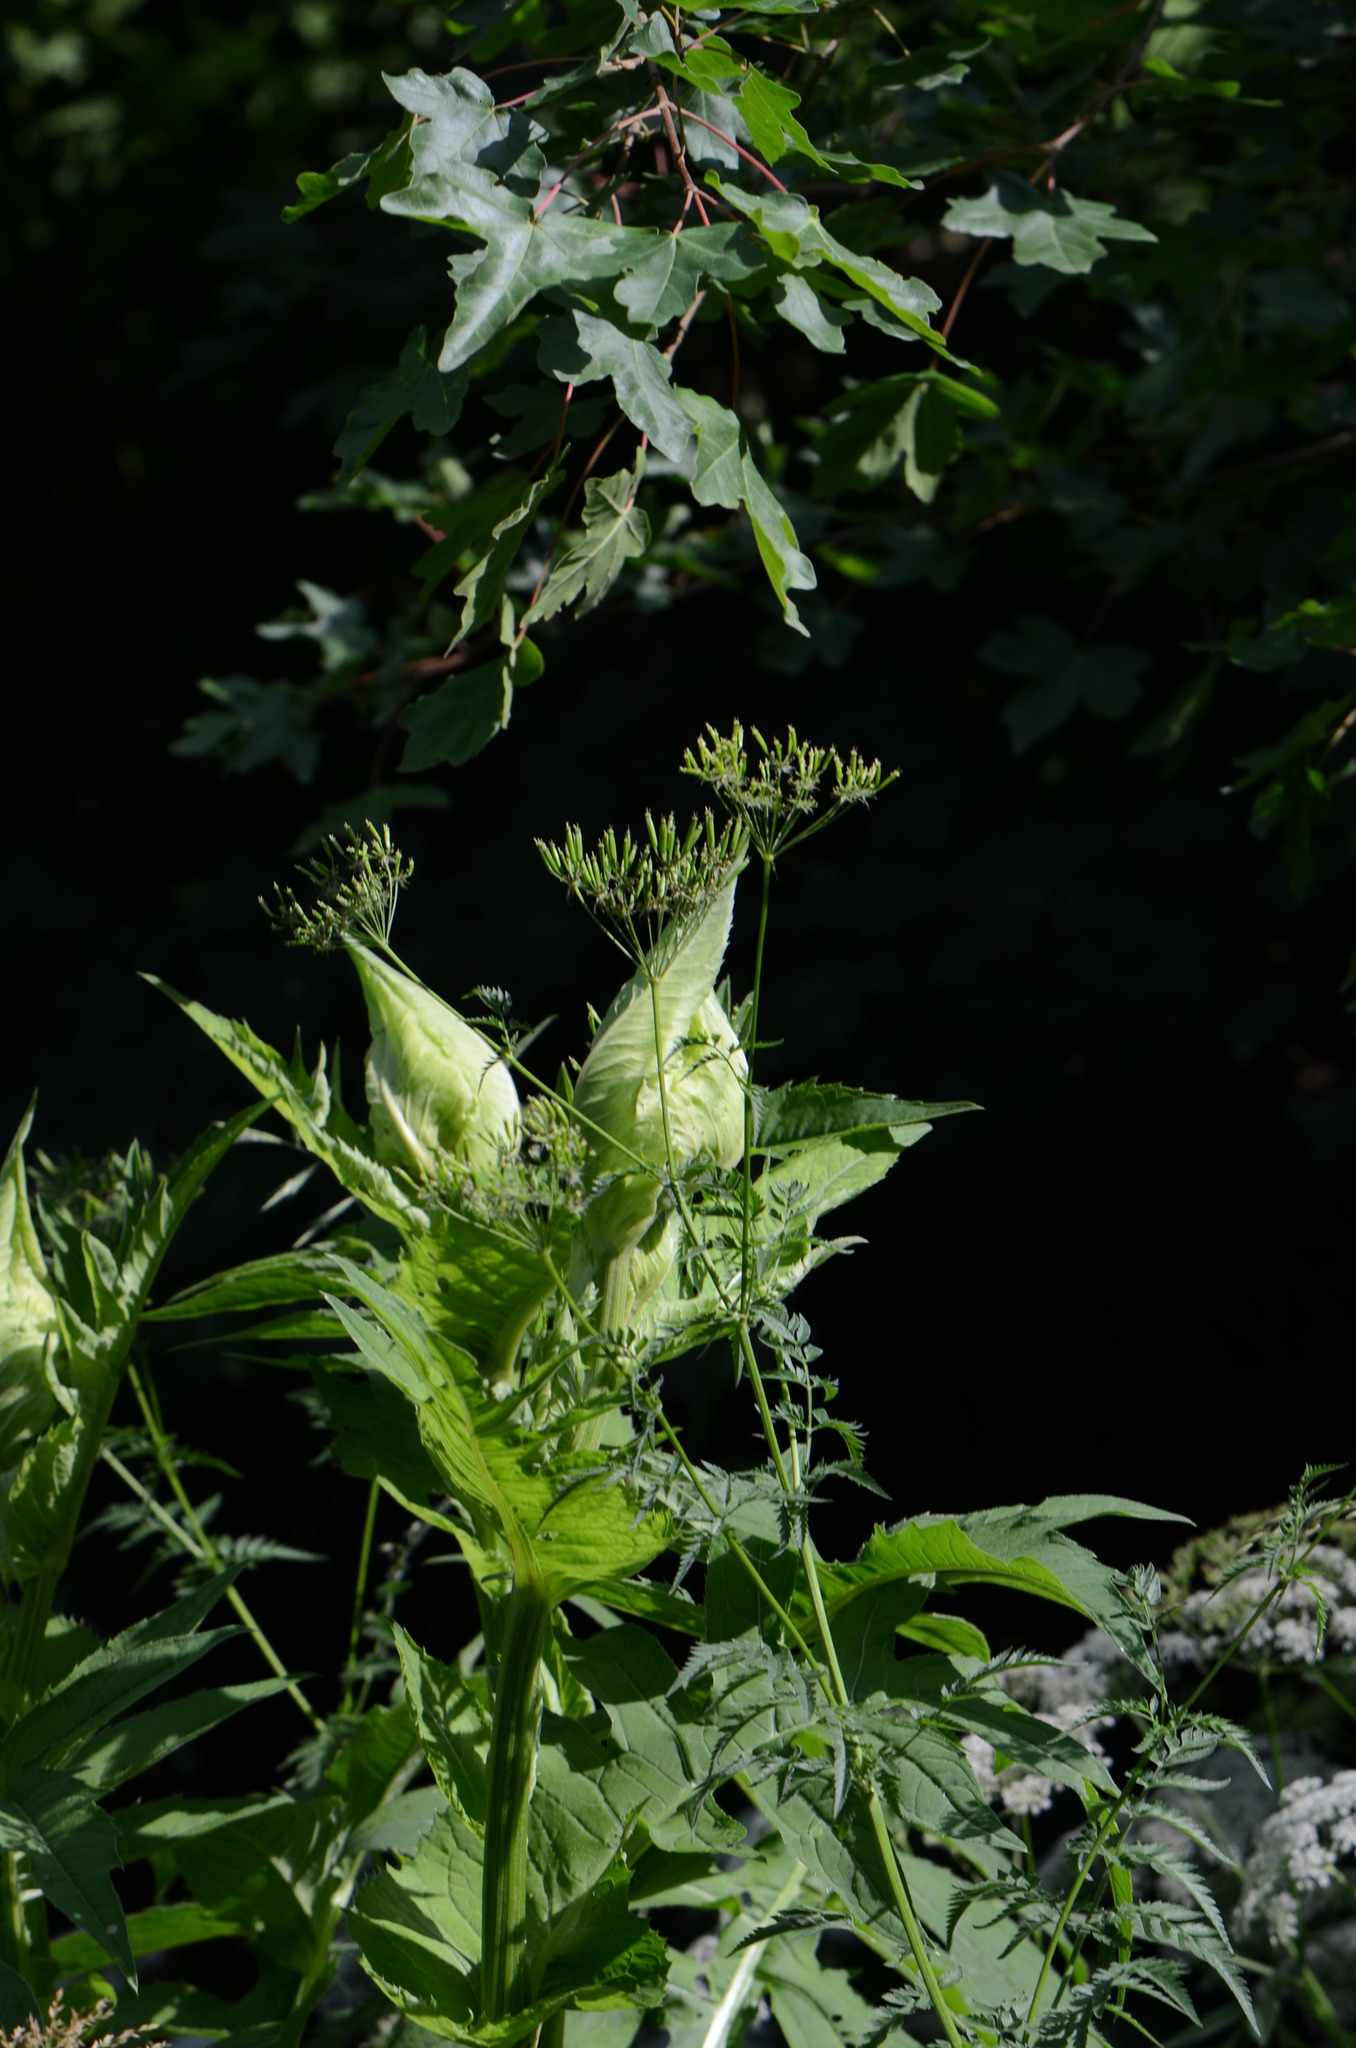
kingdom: Plantae
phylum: Tracheophyta
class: Magnoliopsida
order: Asterales
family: Asteraceae
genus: Cirsium
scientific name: Cirsium oleraceum
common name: Cabbage thistle
